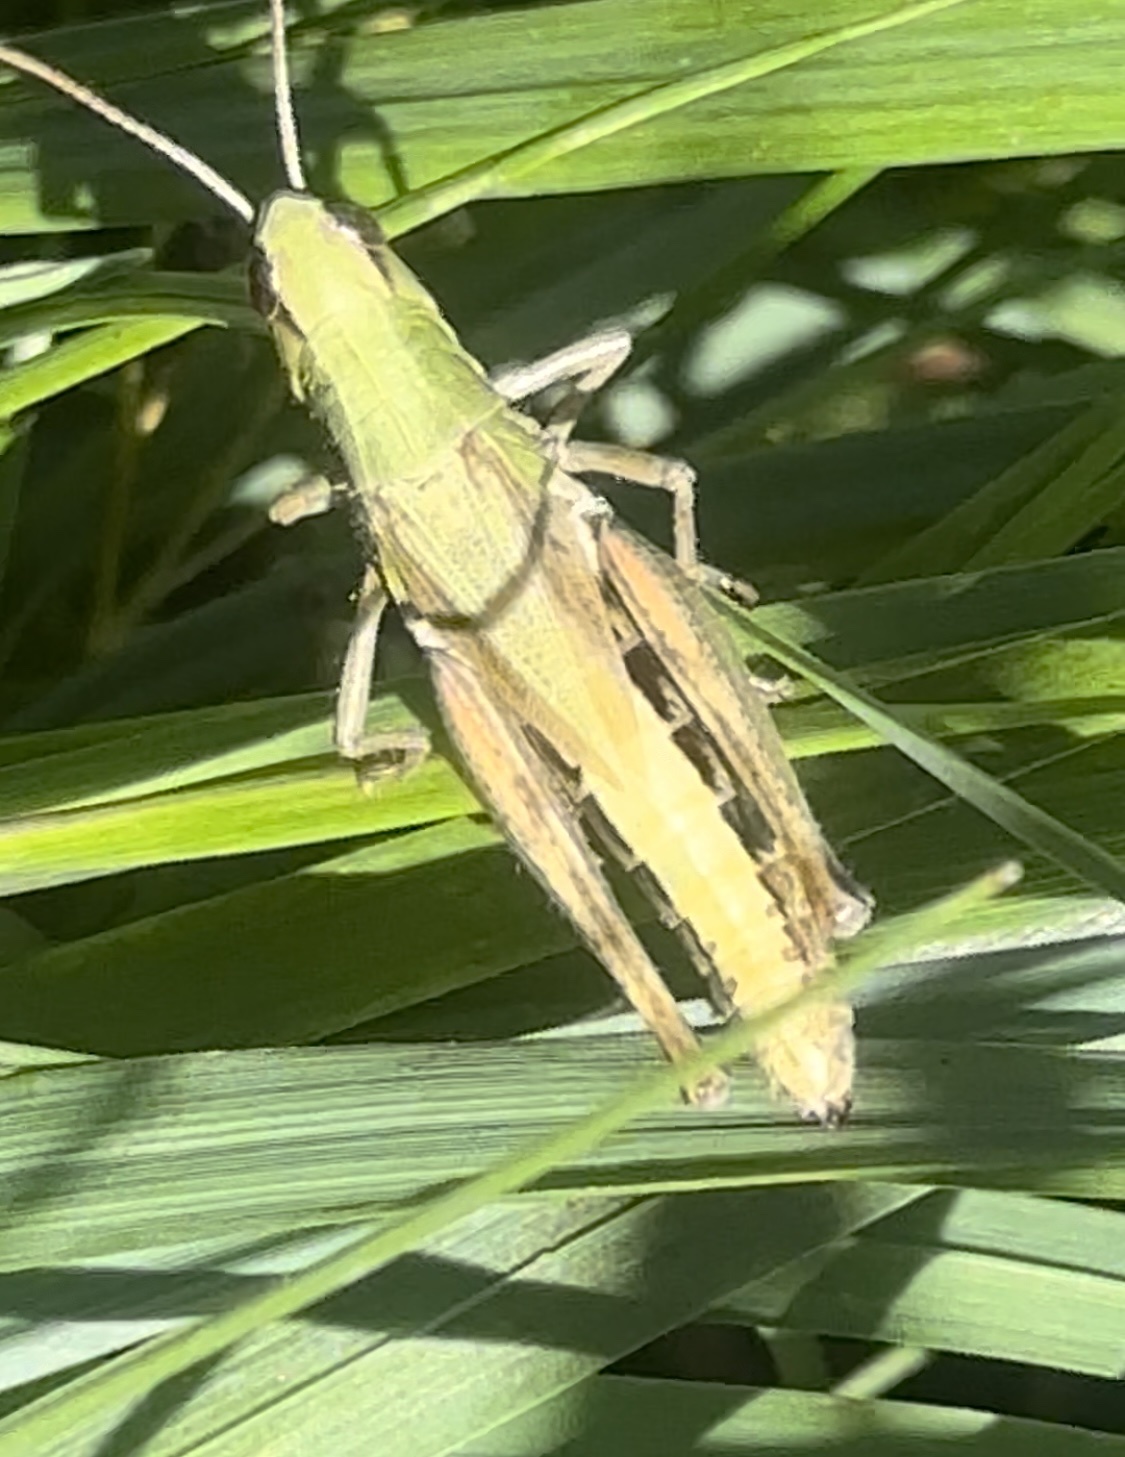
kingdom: Animalia
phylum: Arthropoda
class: Insecta
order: Orthoptera
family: Acrididae
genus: Pseudochorthippus
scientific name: Pseudochorthippus parallelus
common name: Meadow grasshopper
